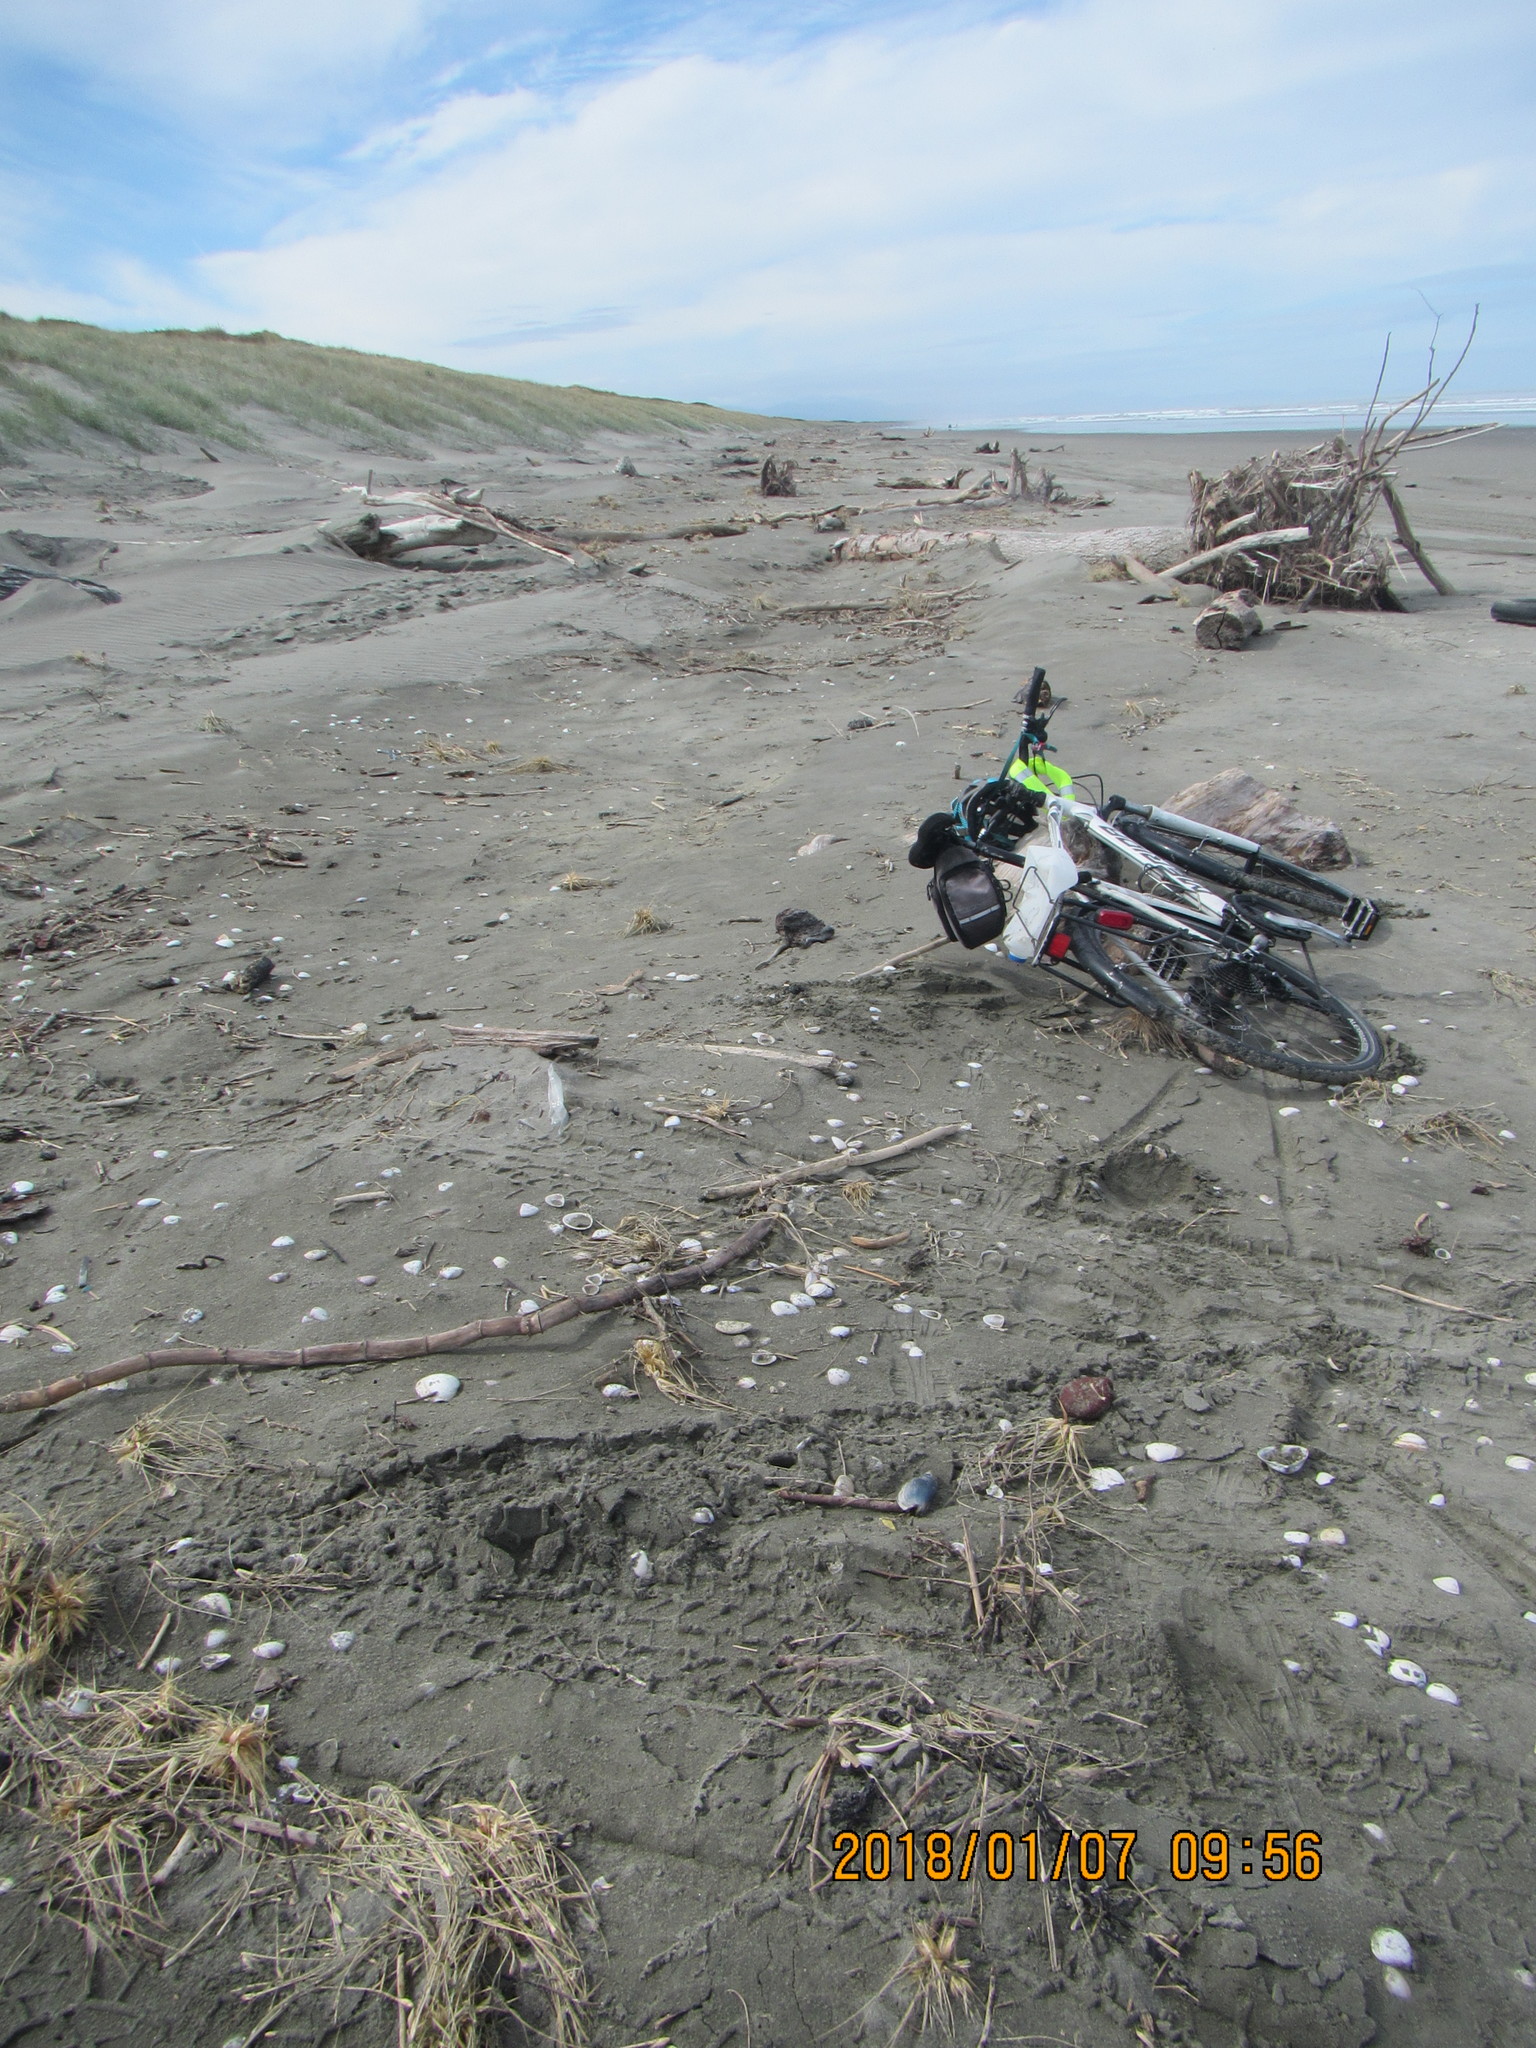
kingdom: Animalia
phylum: Mollusca
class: Gastropoda
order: Neogastropoda
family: Volutidae
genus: Alcithoe
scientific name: Alcithoe arabica
